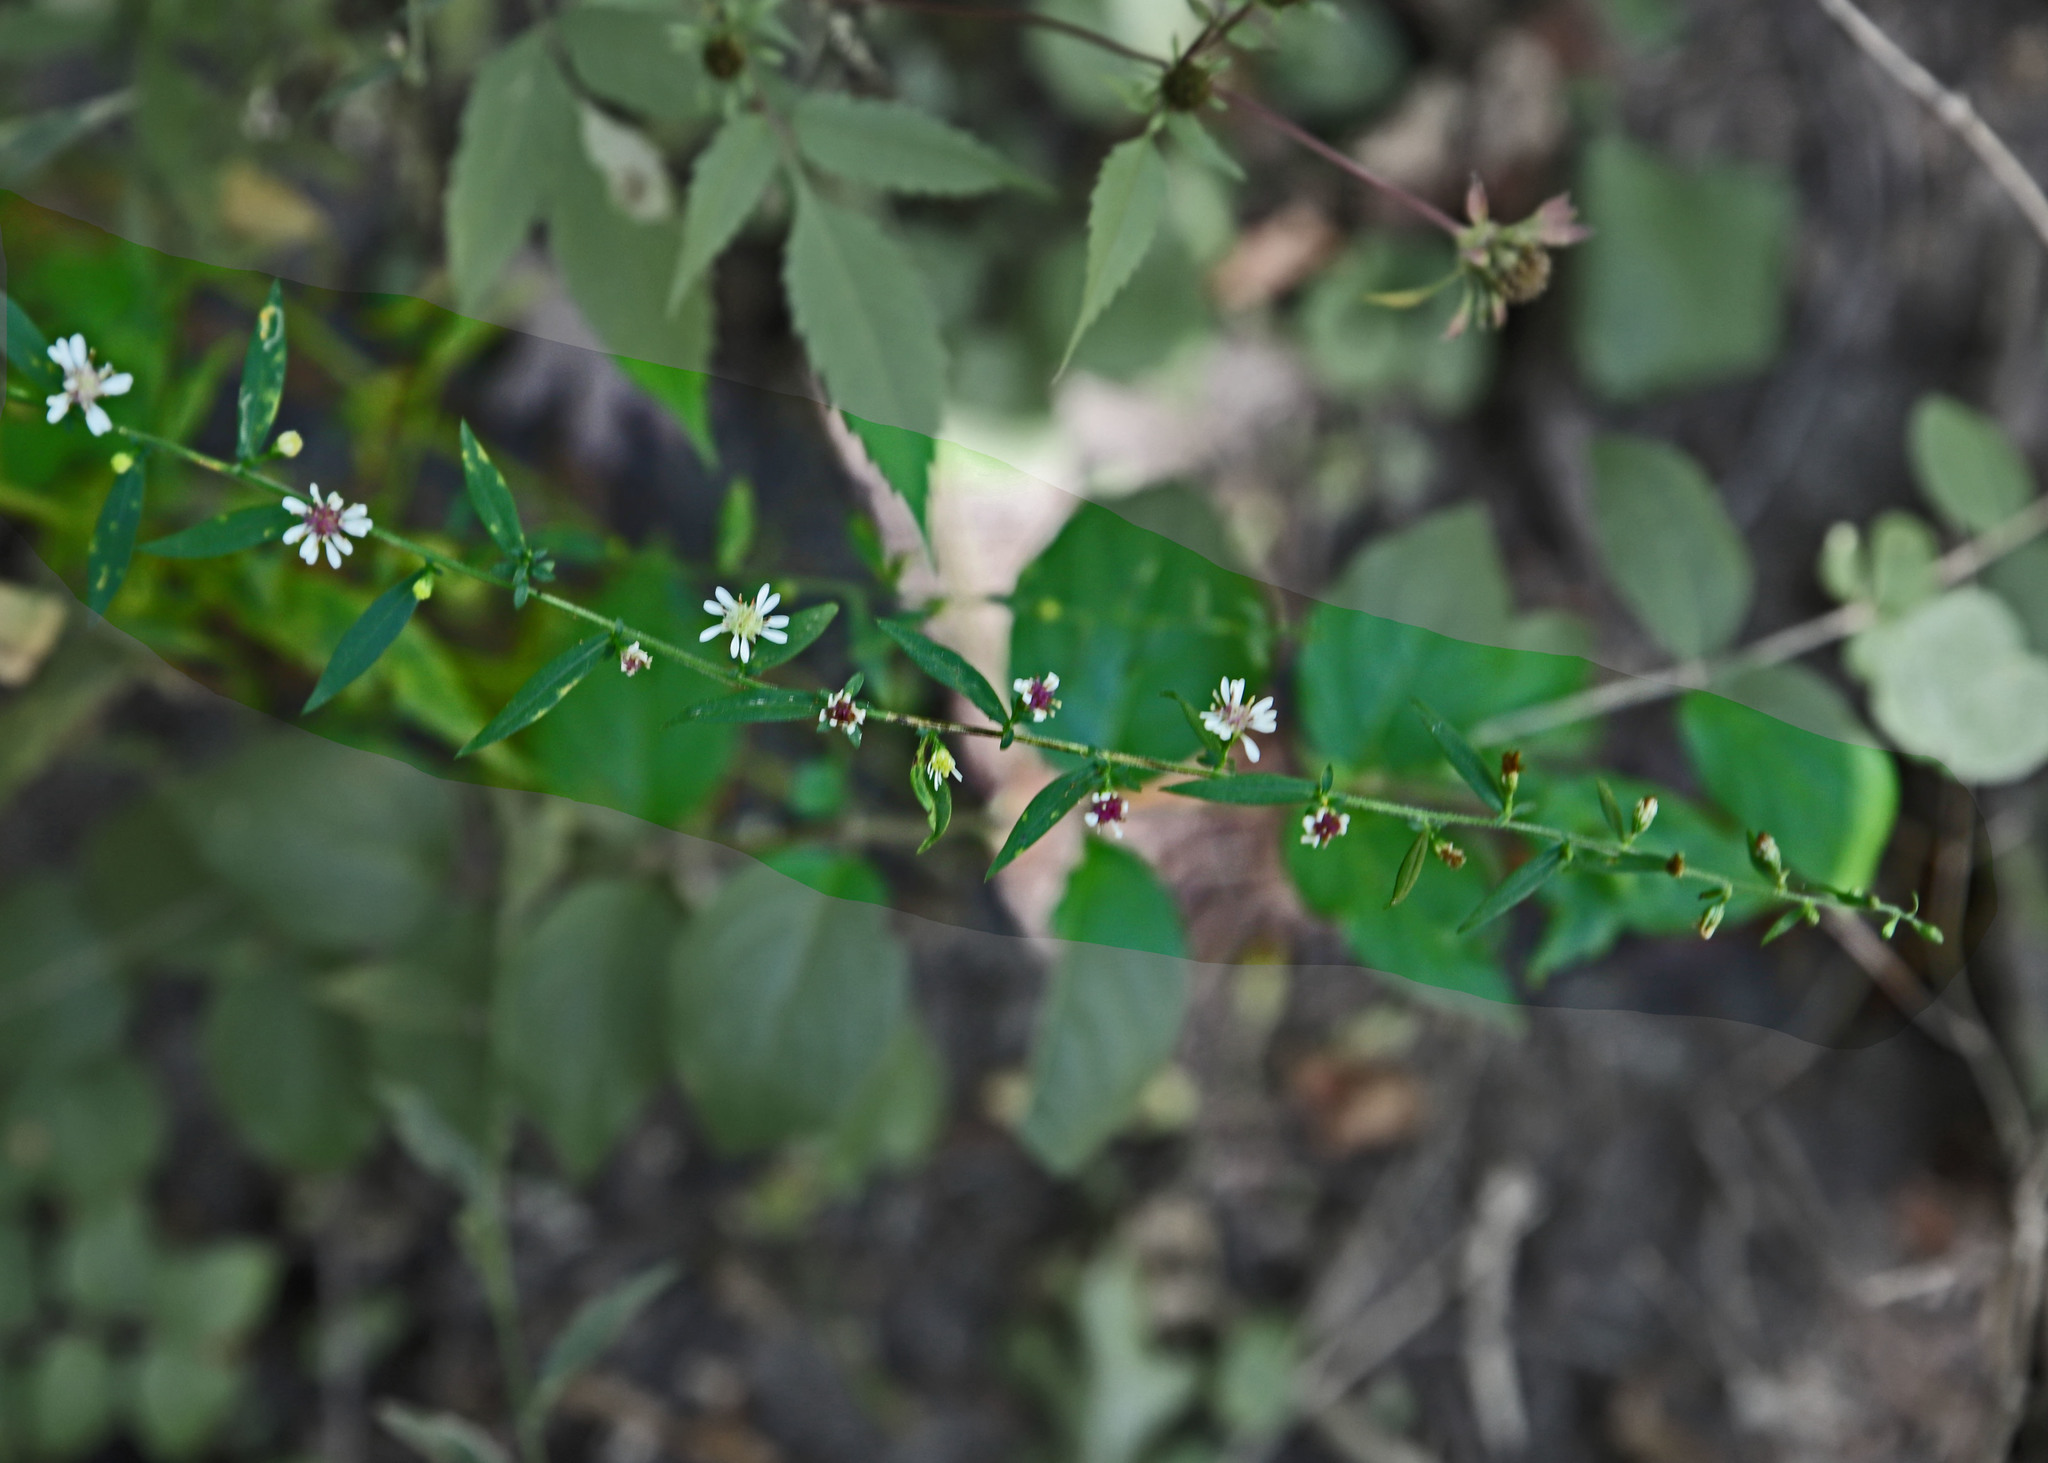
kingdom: Plantae
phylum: Tracheophyta
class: Magnoliopsida
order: Asterales
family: Asteraceae
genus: Symphyotrichum
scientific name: Symphyotrichum lateriflorum
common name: Calico aster
